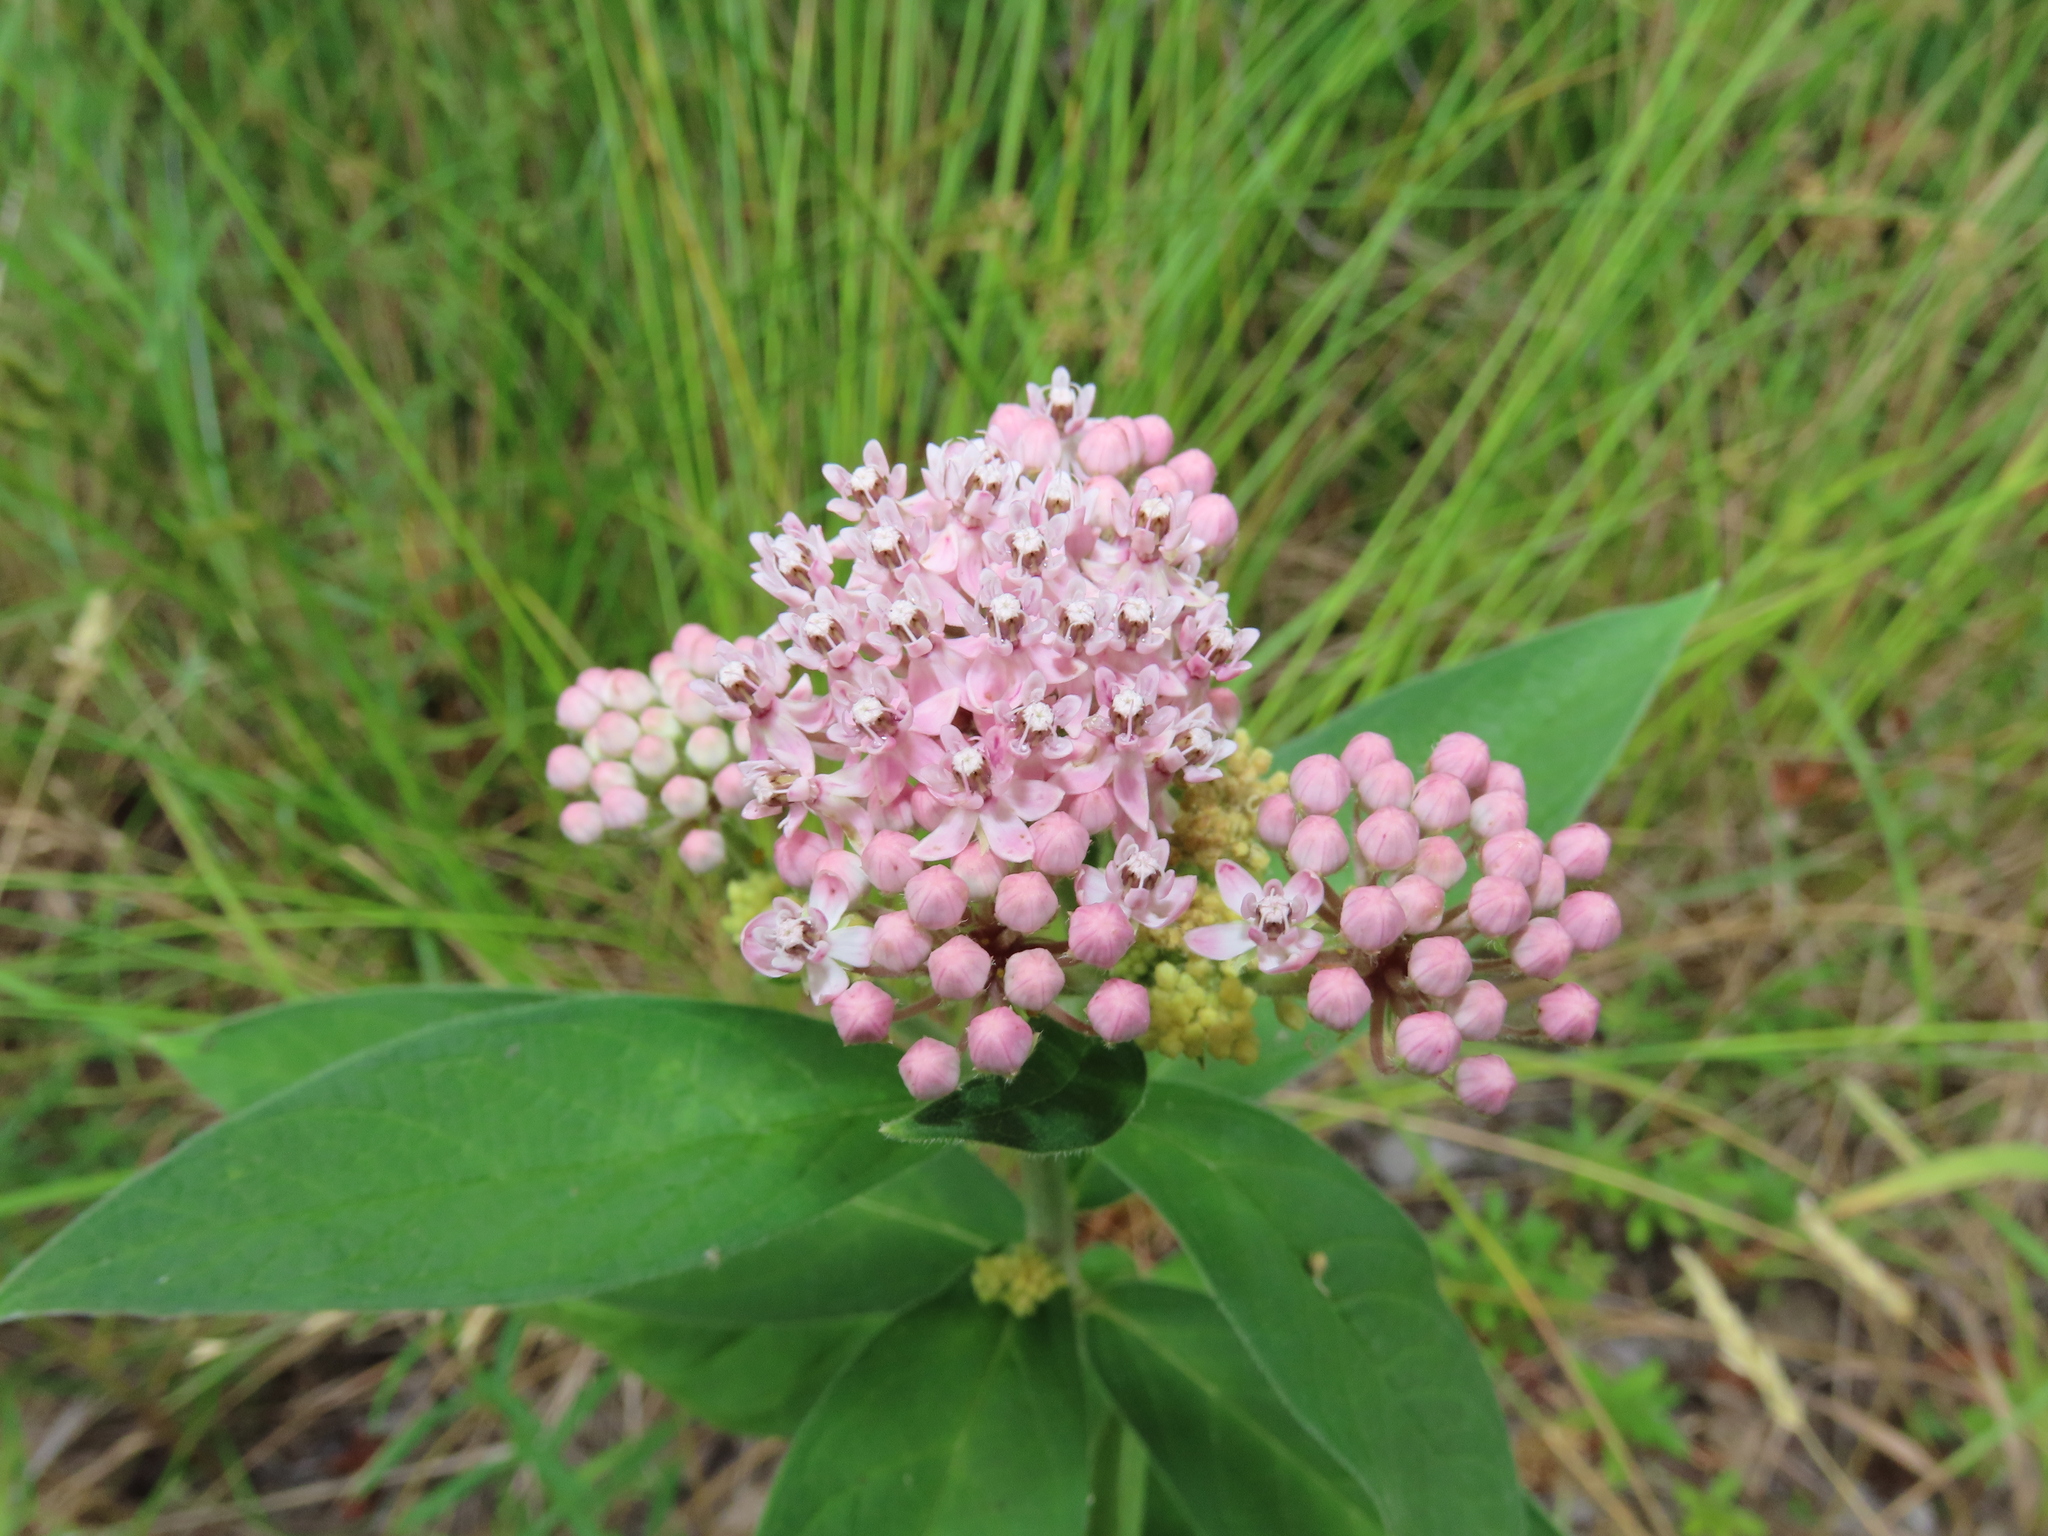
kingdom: Plantae
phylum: Tracheophyta
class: Magnoliopsida
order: Gentianales
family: Apocynaceae
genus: Asclepias
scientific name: Asclepias incarnata
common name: Swamp milkweed
